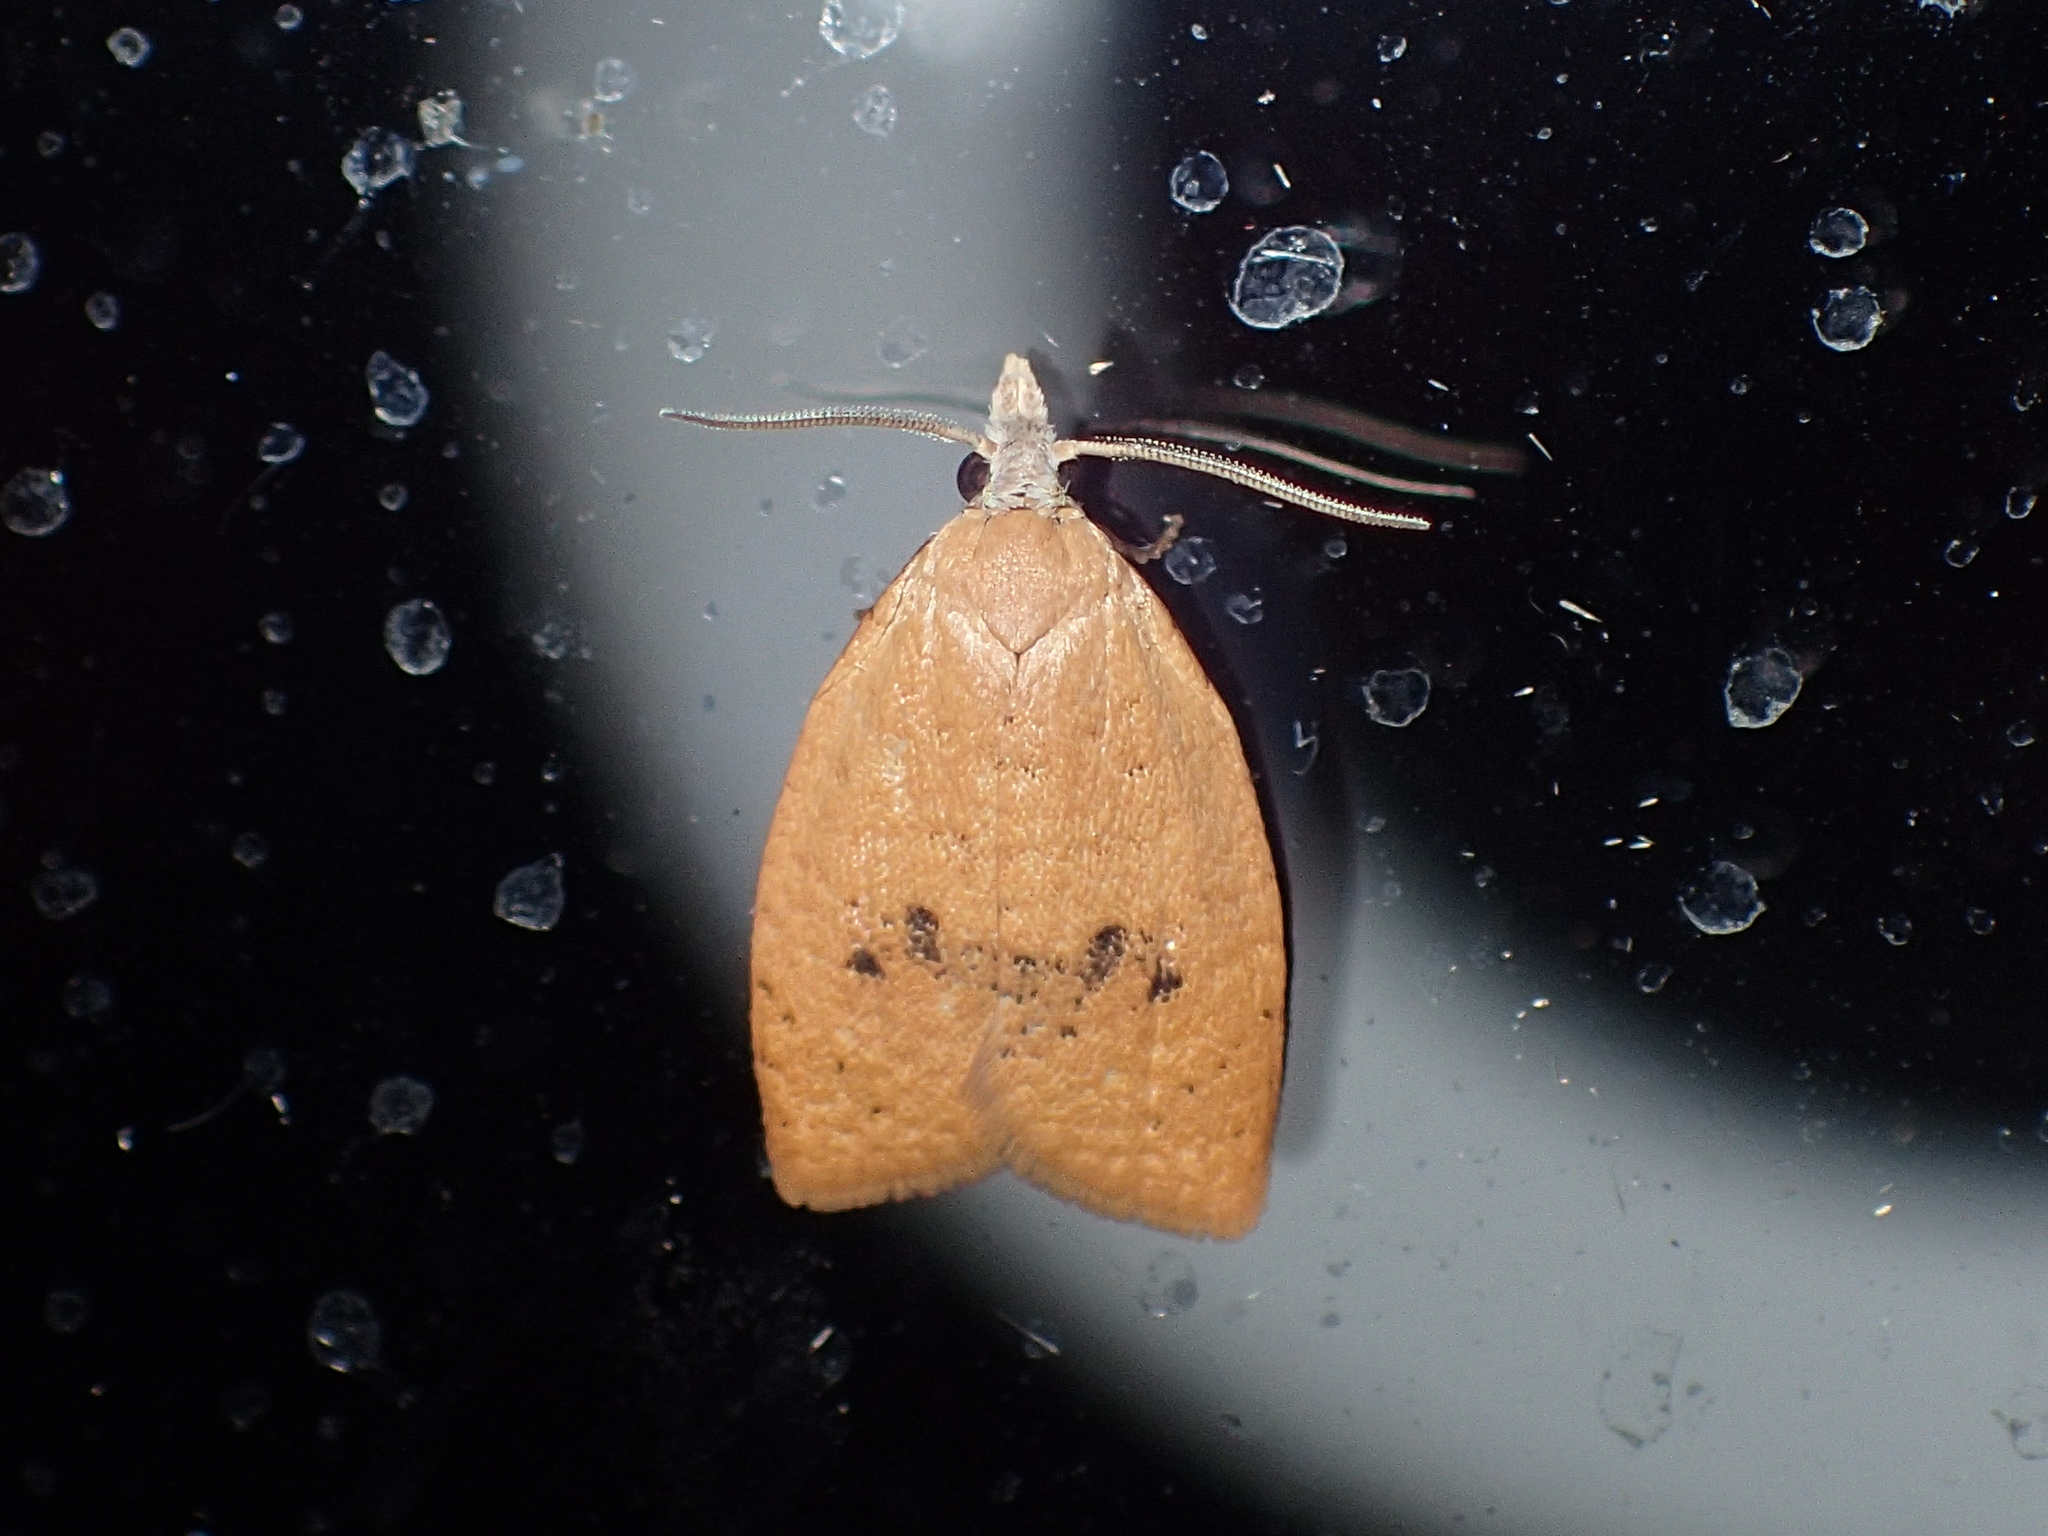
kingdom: Animalia
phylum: Arthropoda
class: Insecta
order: Lepidoptera
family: Tortricidae
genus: Sparganothoides
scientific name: Sparganothoides lentiginosana
